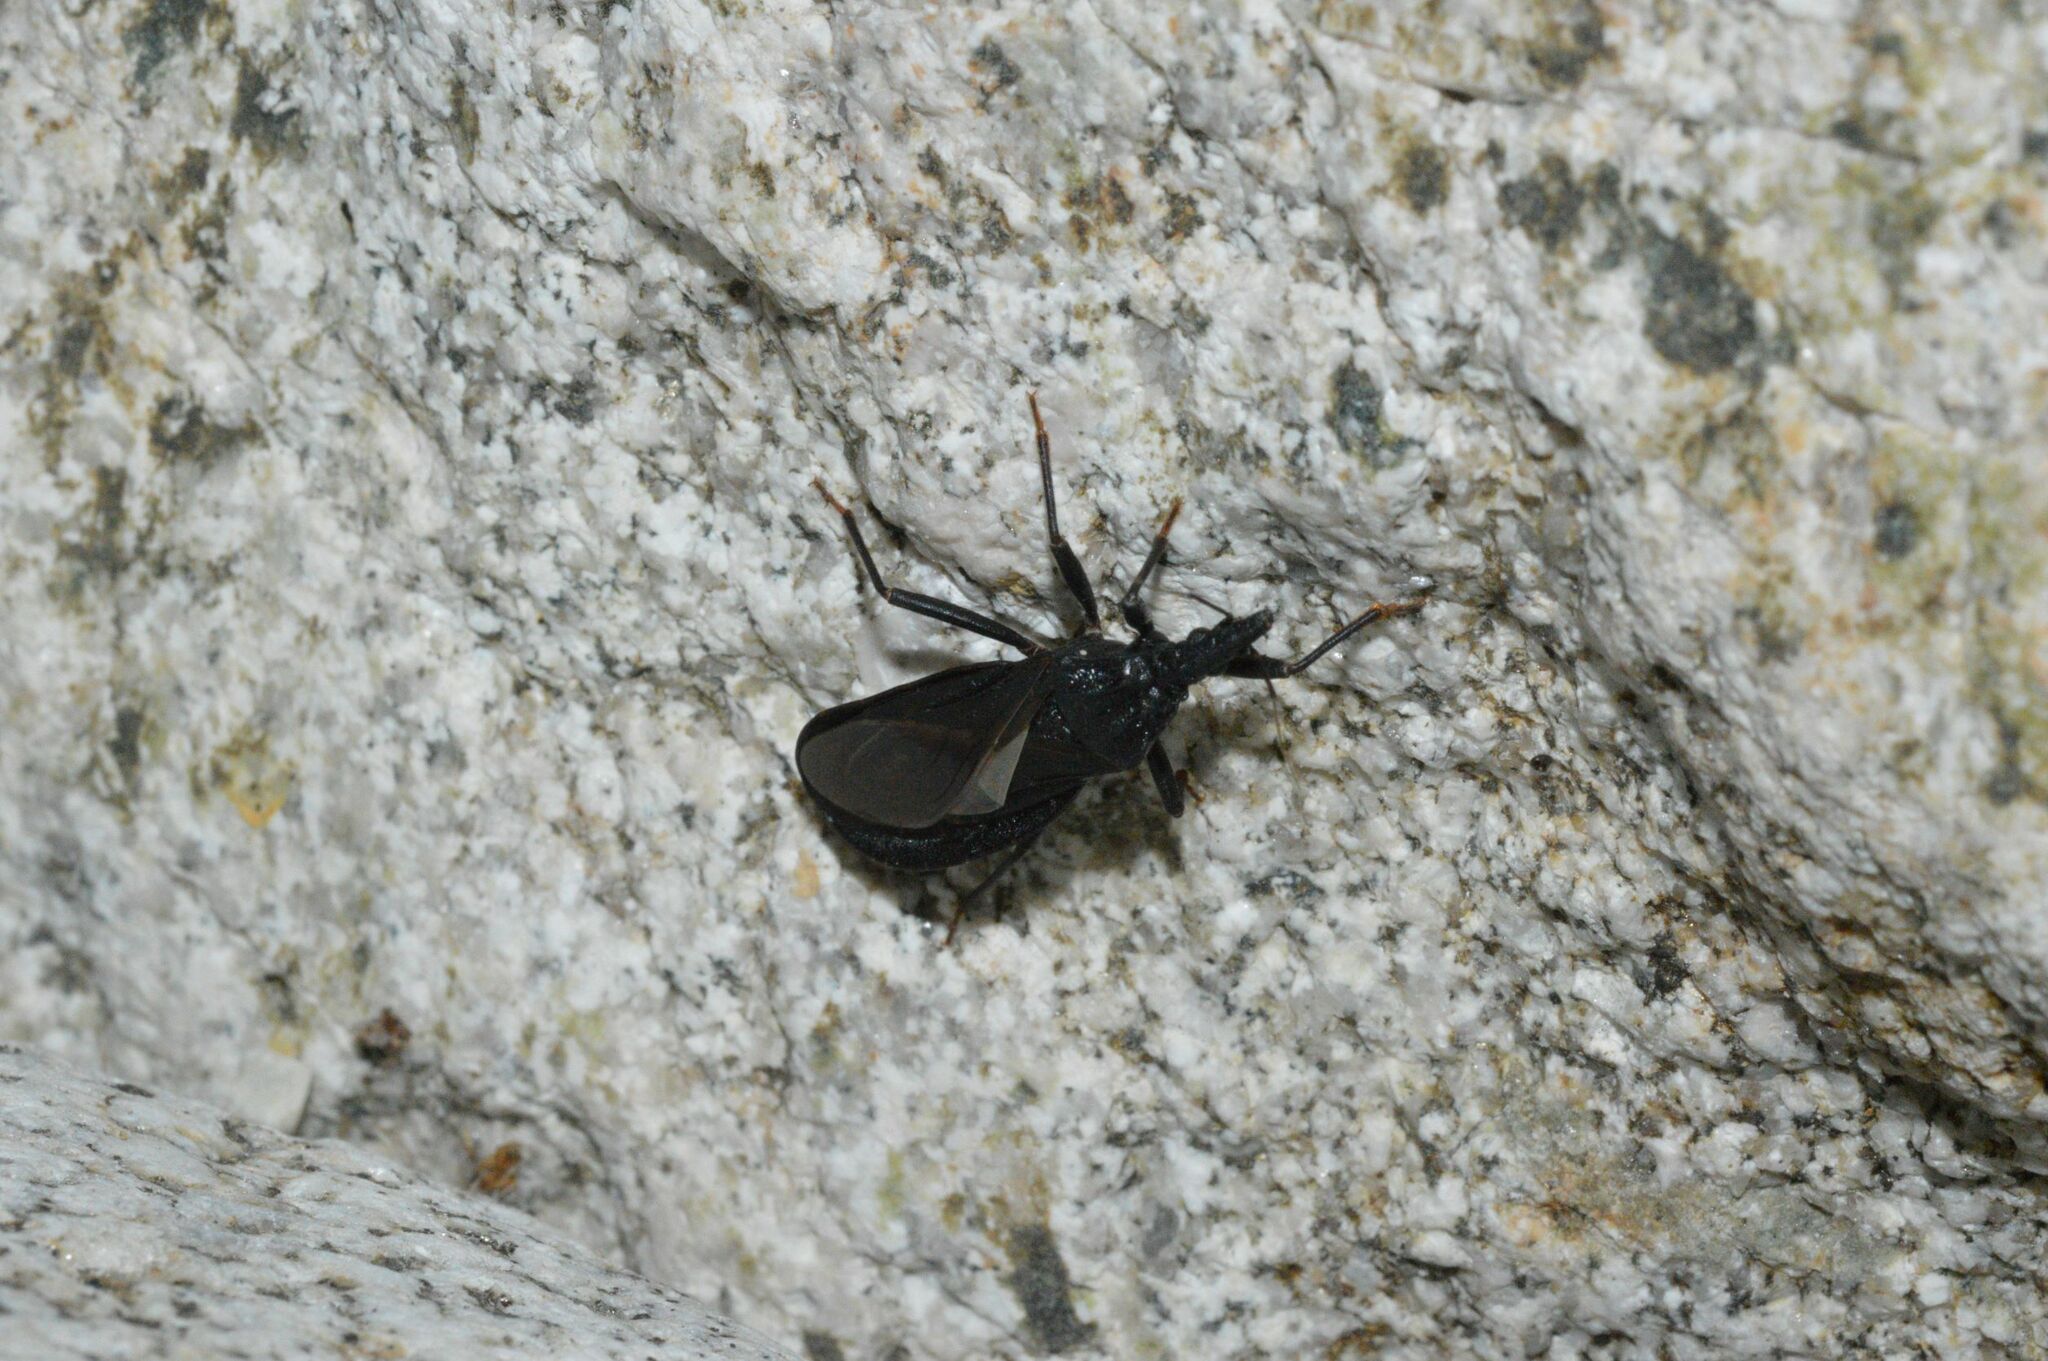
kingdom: Animalia
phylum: Arthropoda
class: Insecta
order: Hemiptera
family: Reduviidae
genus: Triatoma
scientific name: Triatoma protracta
